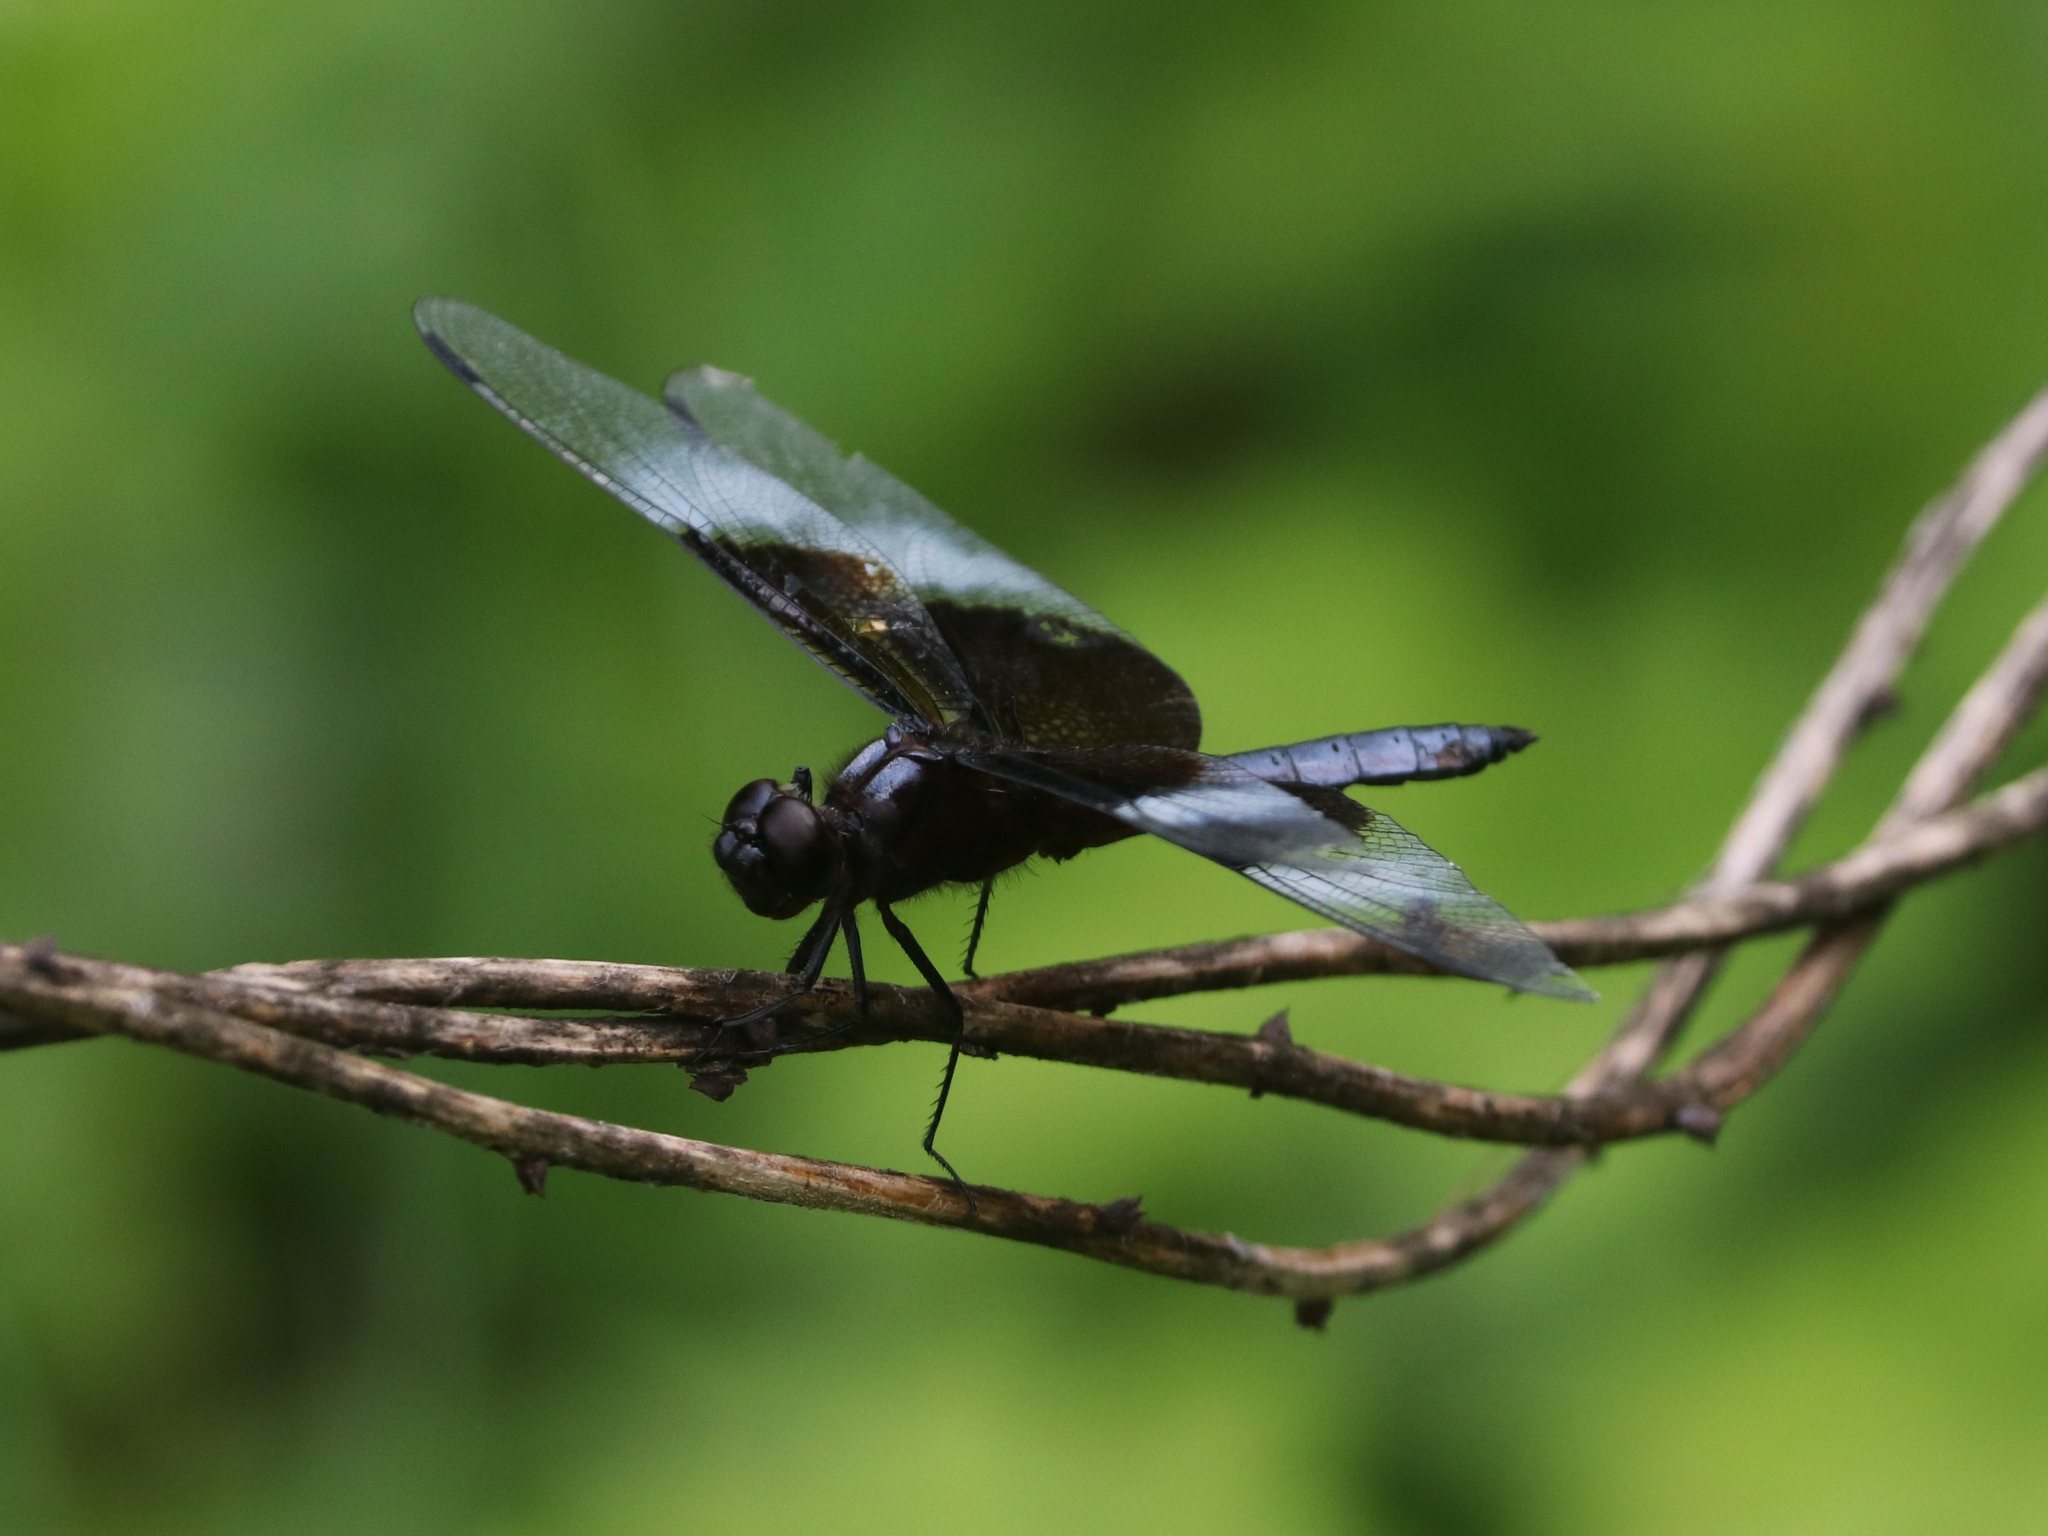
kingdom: Animalia
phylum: Arthropoda
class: Insecta
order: Odonata
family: Libellulidae
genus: Libellula
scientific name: Libellula luctuosa
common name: Widow skimmer
